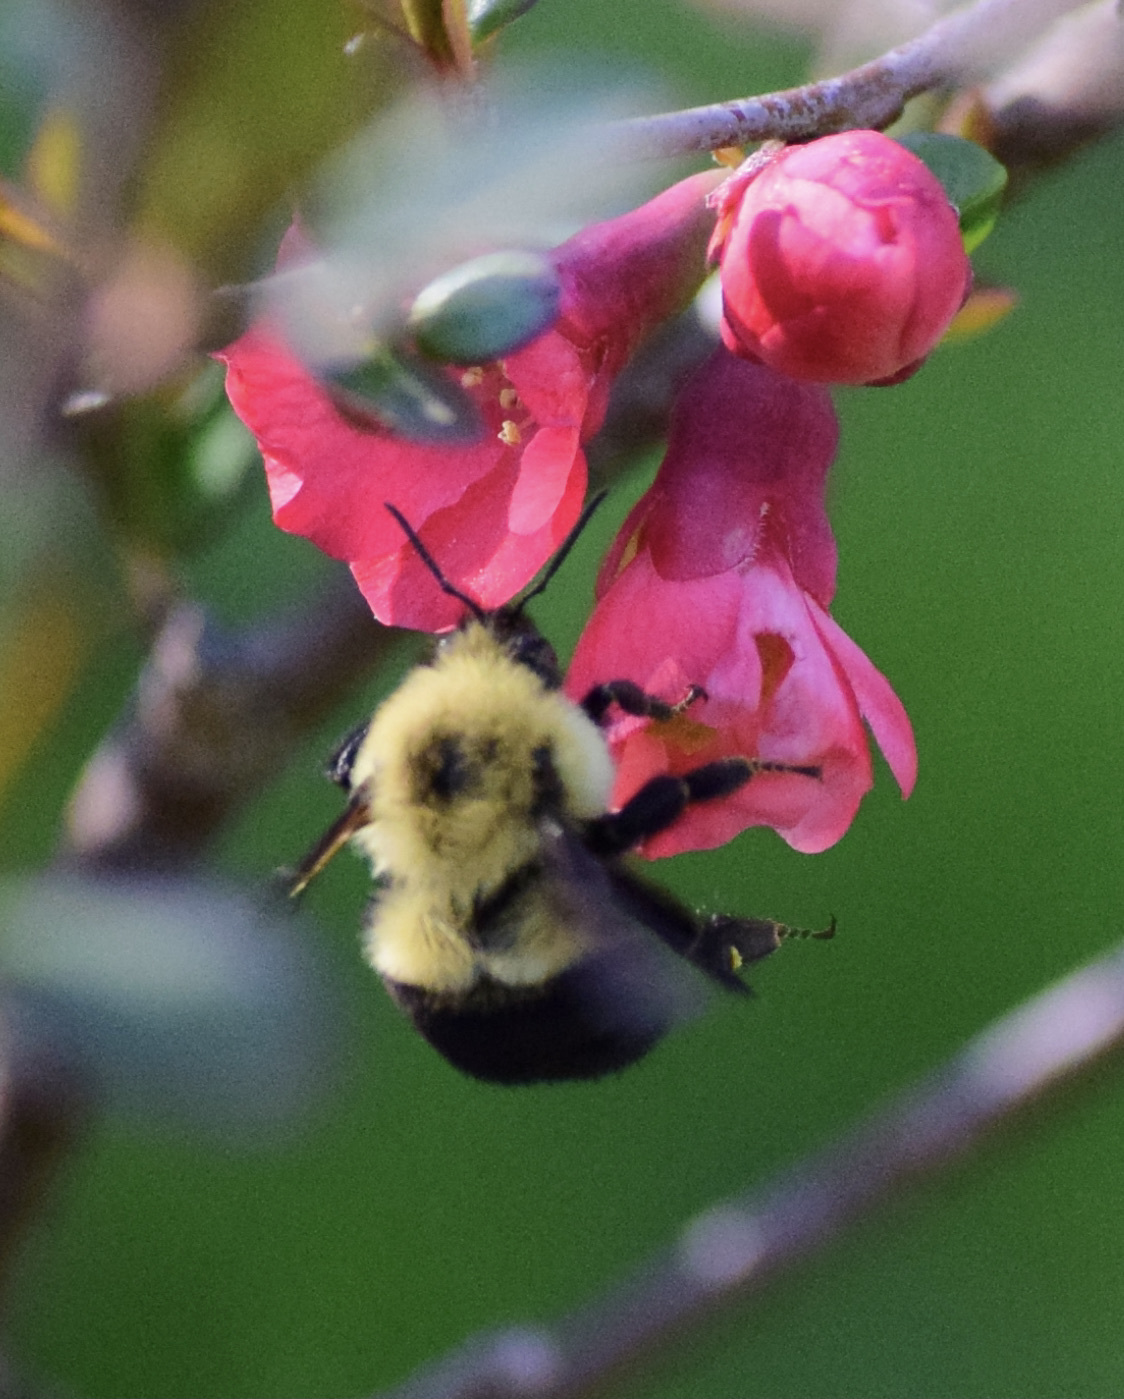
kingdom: Animalia
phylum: Arthropoda
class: Insecta
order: Hymenoptera
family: Apidae
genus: Bombus
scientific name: Bombus bimaculatus
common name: Two-spotted bumble bee
